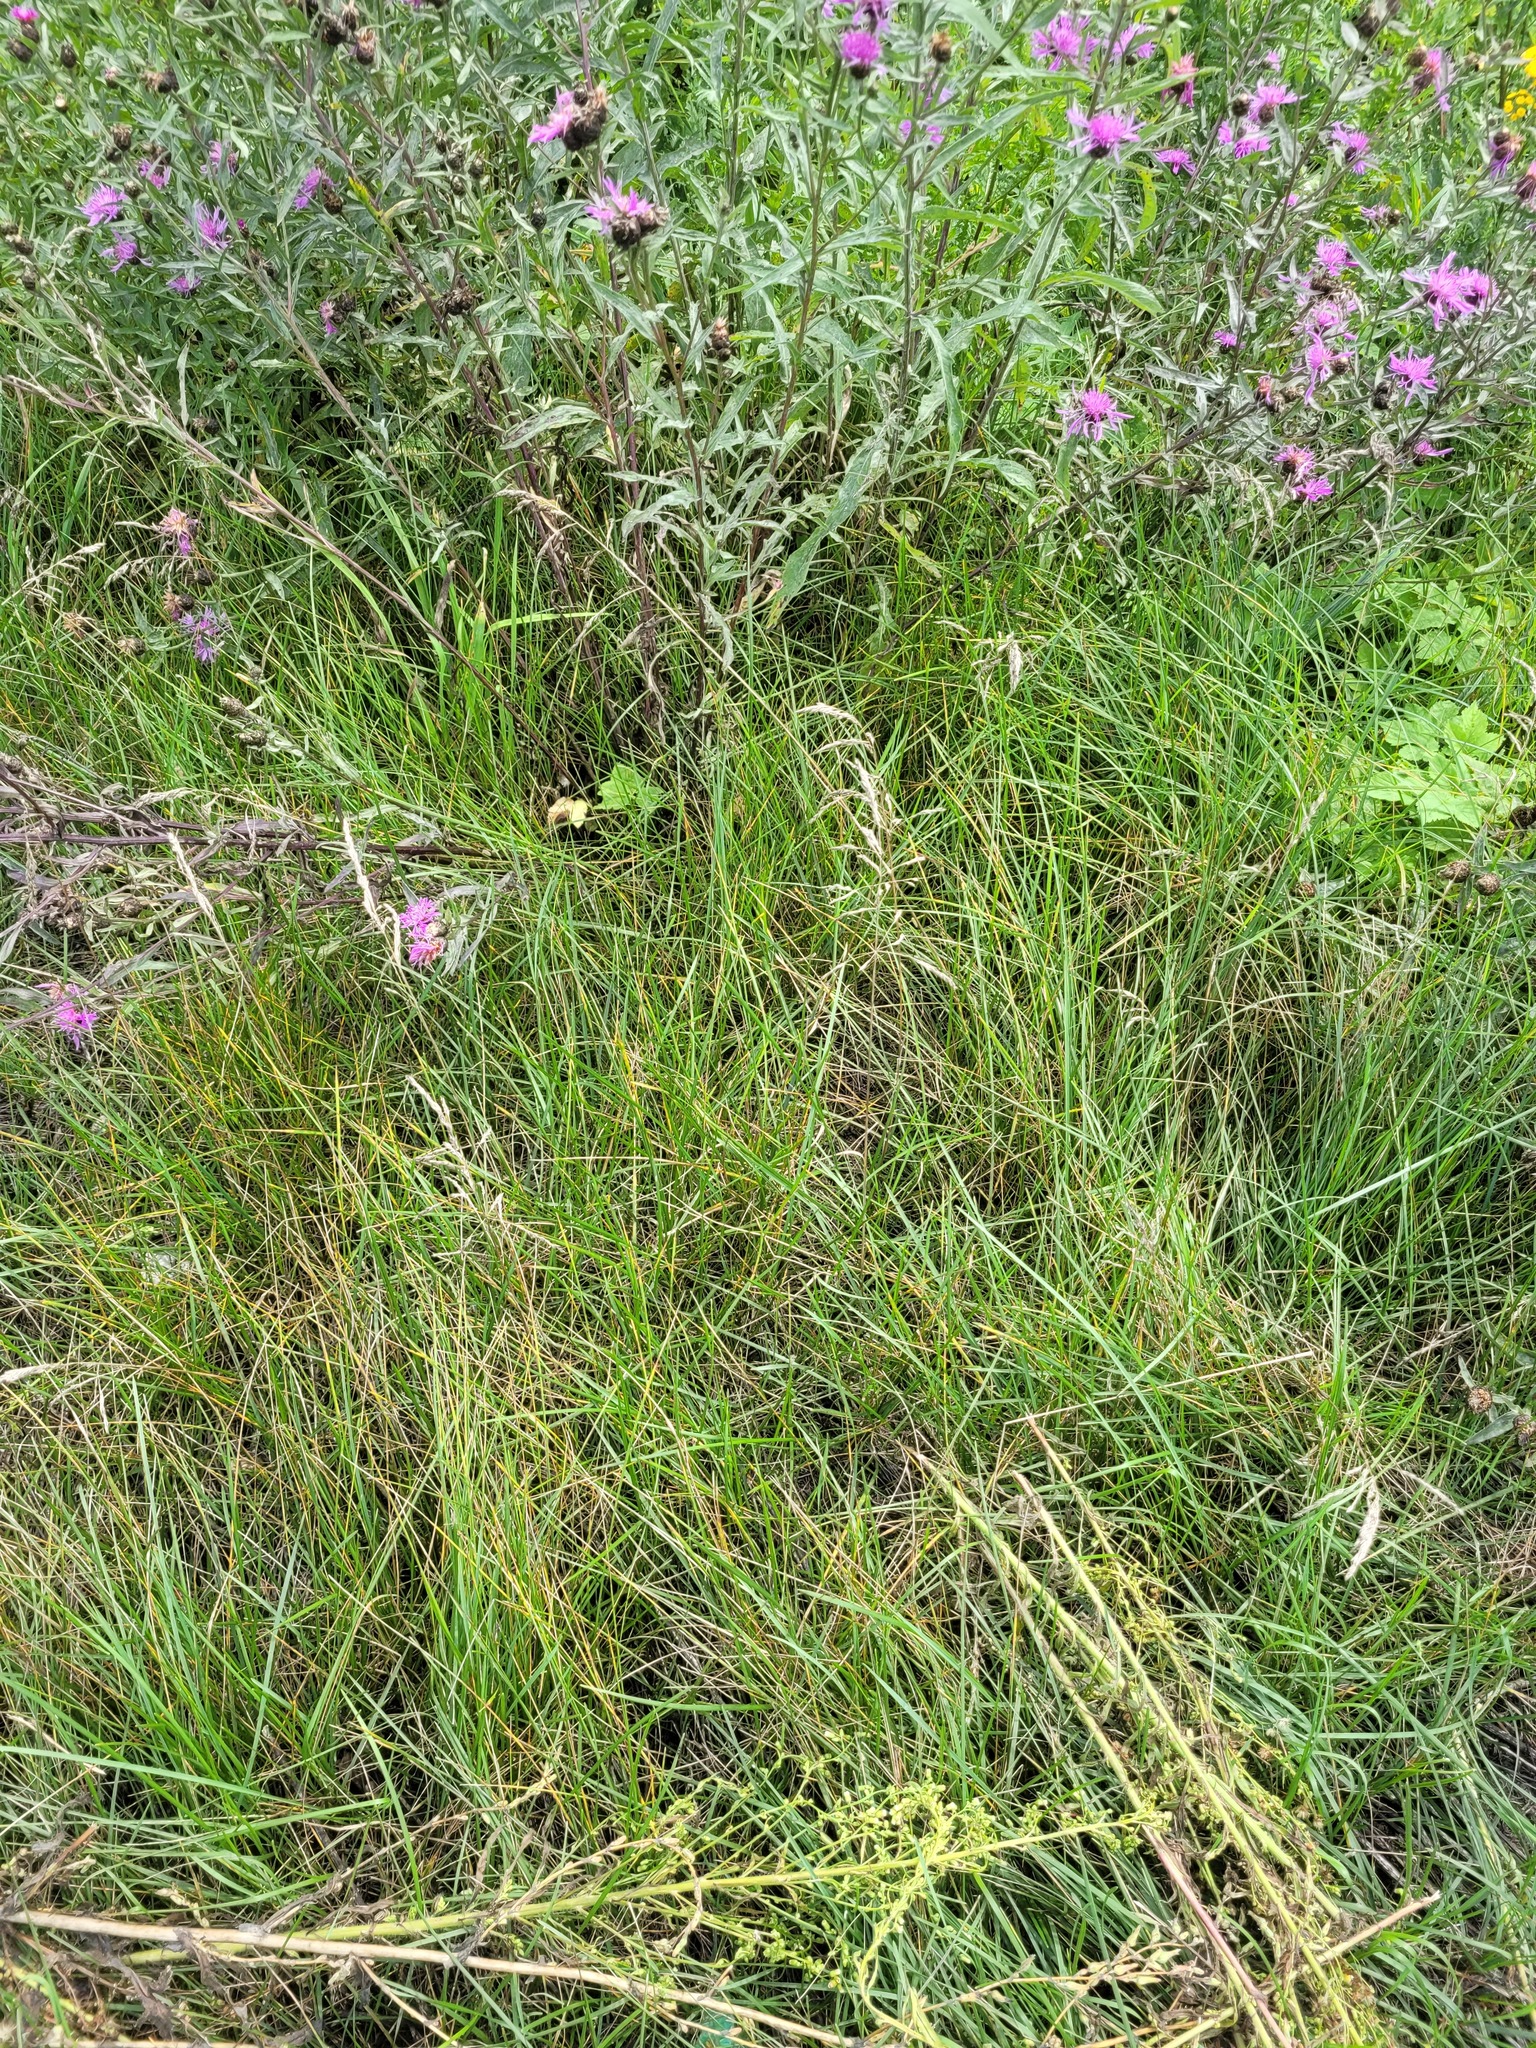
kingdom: Plantae
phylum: Tracheophyta
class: Liliopsida
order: Poales
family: Poaceae
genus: Poa
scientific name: Poa angustifolia
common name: Narrow-leaved meadow-grass
